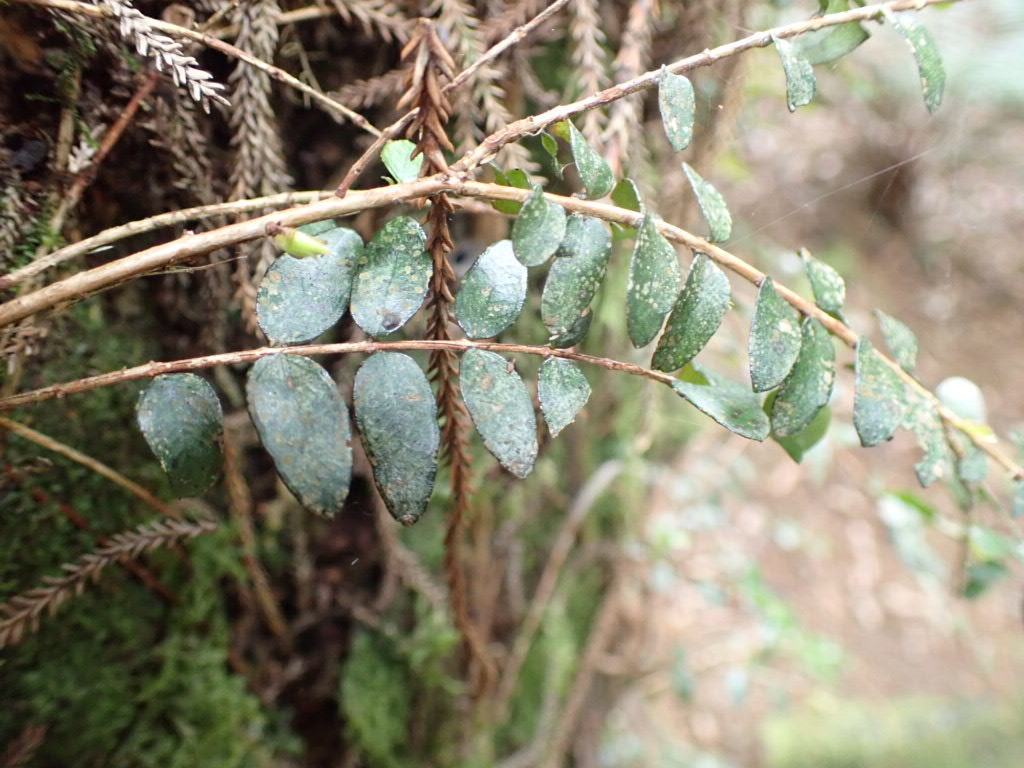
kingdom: Plantae
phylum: Tracheophyta
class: Magnoliopsida
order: Myrtales
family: Myrtaceae
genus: Metrosideros
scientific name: Metrosideros diffusa
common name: Small ratavine
